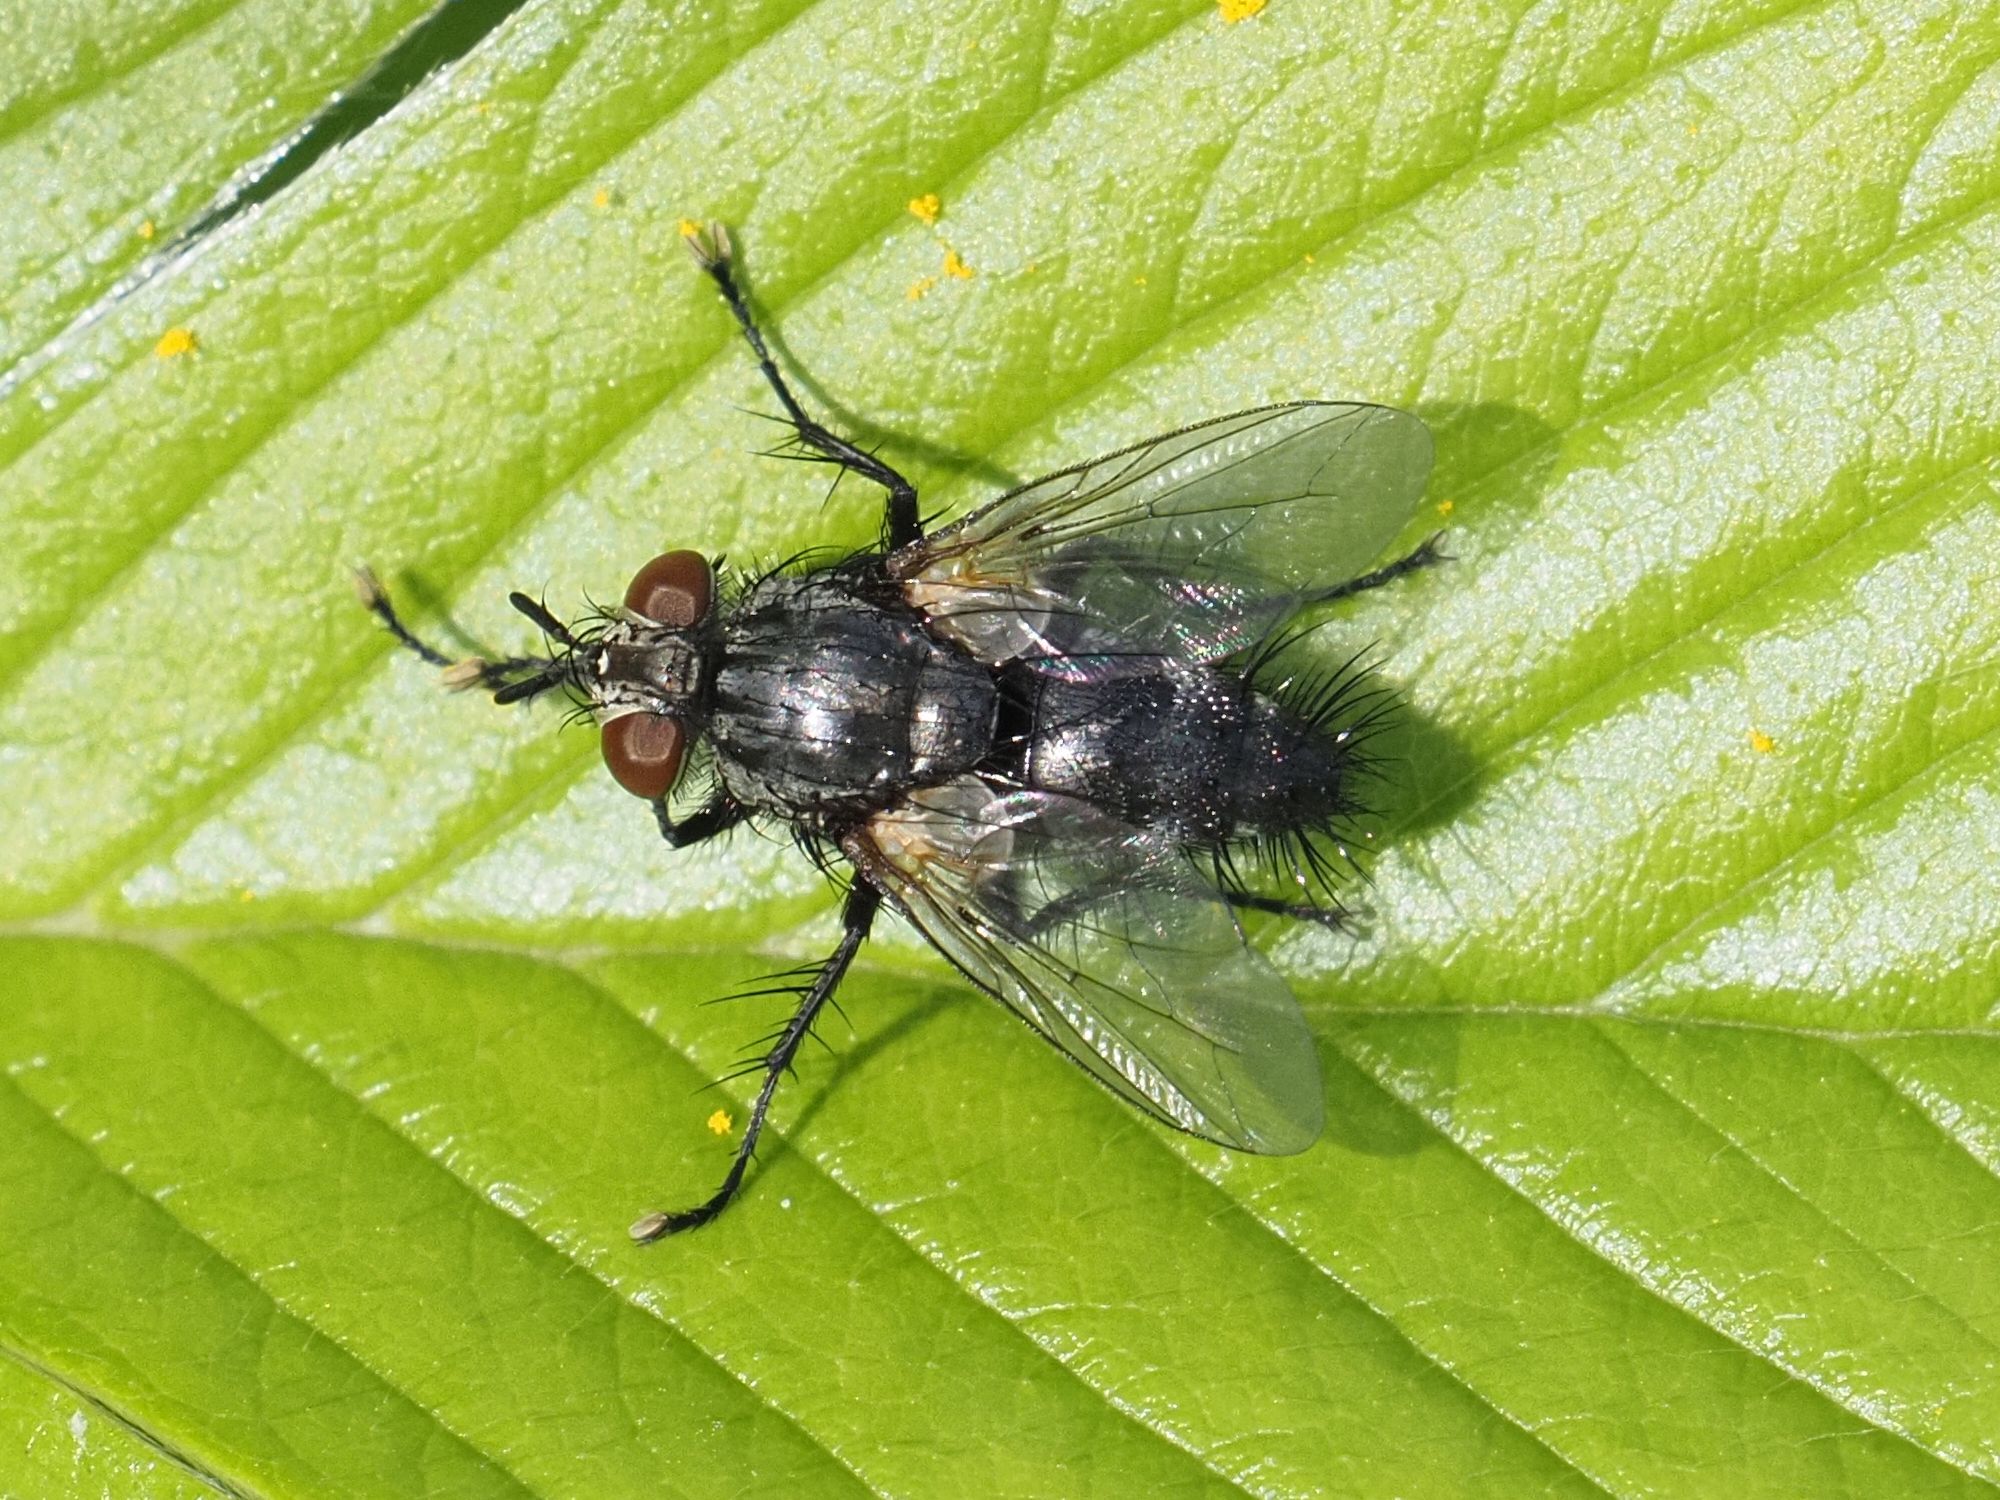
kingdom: Animalia
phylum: Arthropoda
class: Insecta
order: Diptera
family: Tachinidae
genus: Voria
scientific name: Voria ruralis
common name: Parasitic fly
